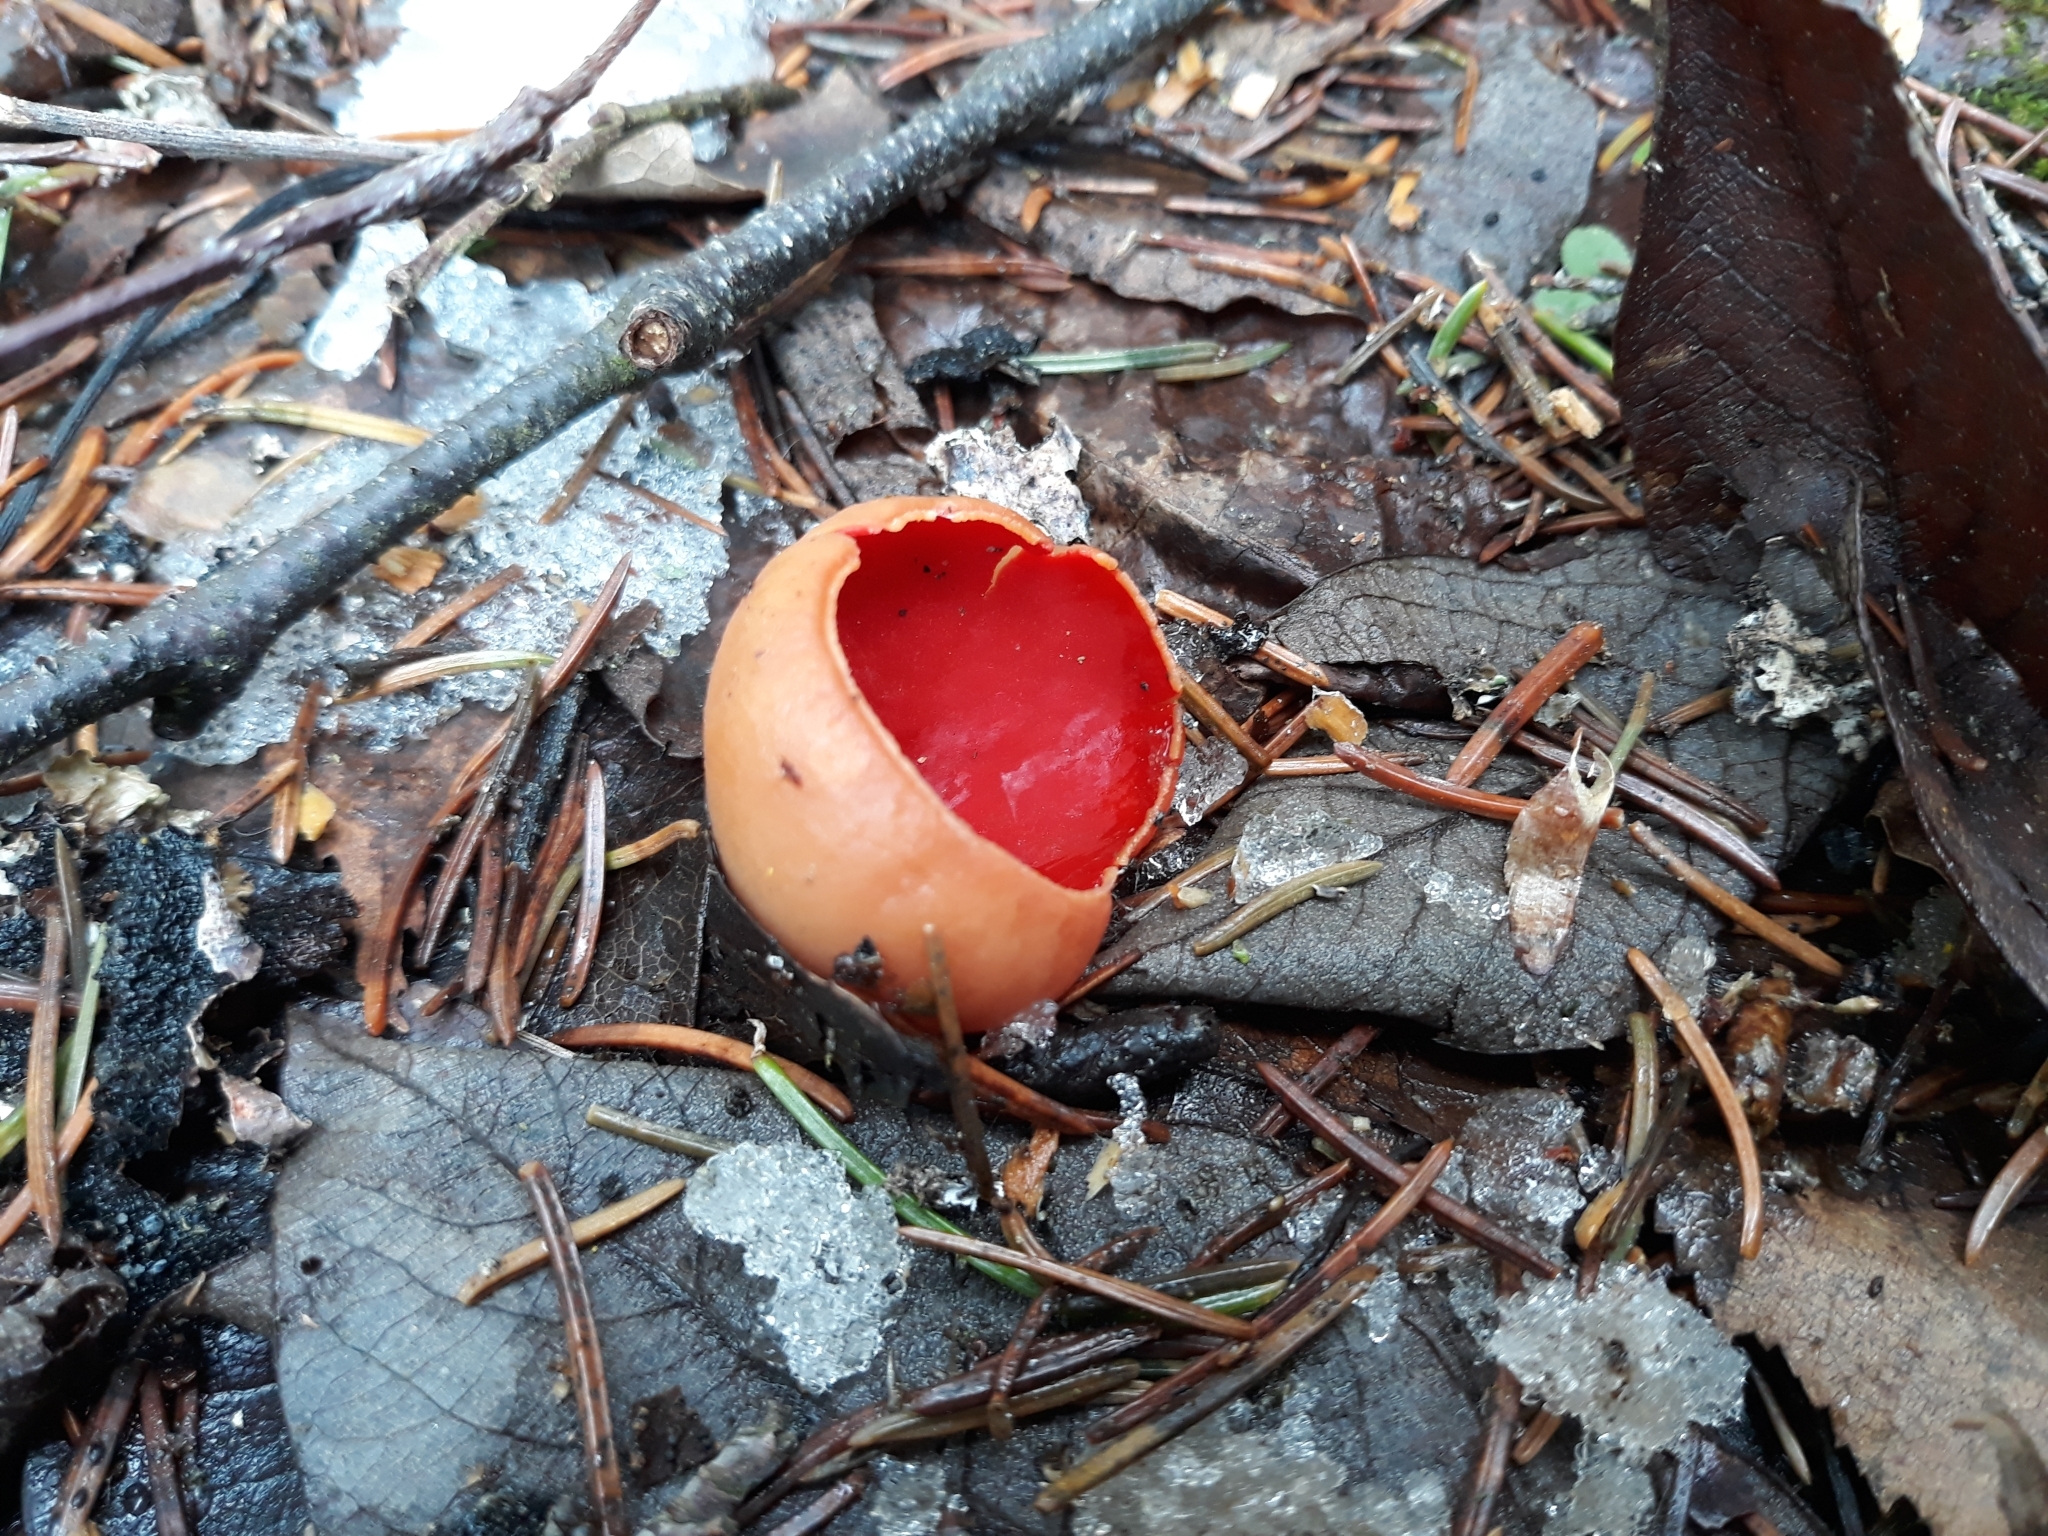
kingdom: Fungi
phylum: Ascomycota
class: Pezizomycetes
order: Pezizales
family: Sarcoscyphaceae
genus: Sarcoscypha
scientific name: Sarcoscypha
